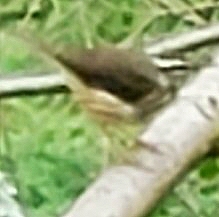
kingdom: Animalia
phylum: Chordata
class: Aves
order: Passeriformes
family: Parulidae
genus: Parkesia
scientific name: Parkesia motacilla
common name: Louisiana waterthrush
